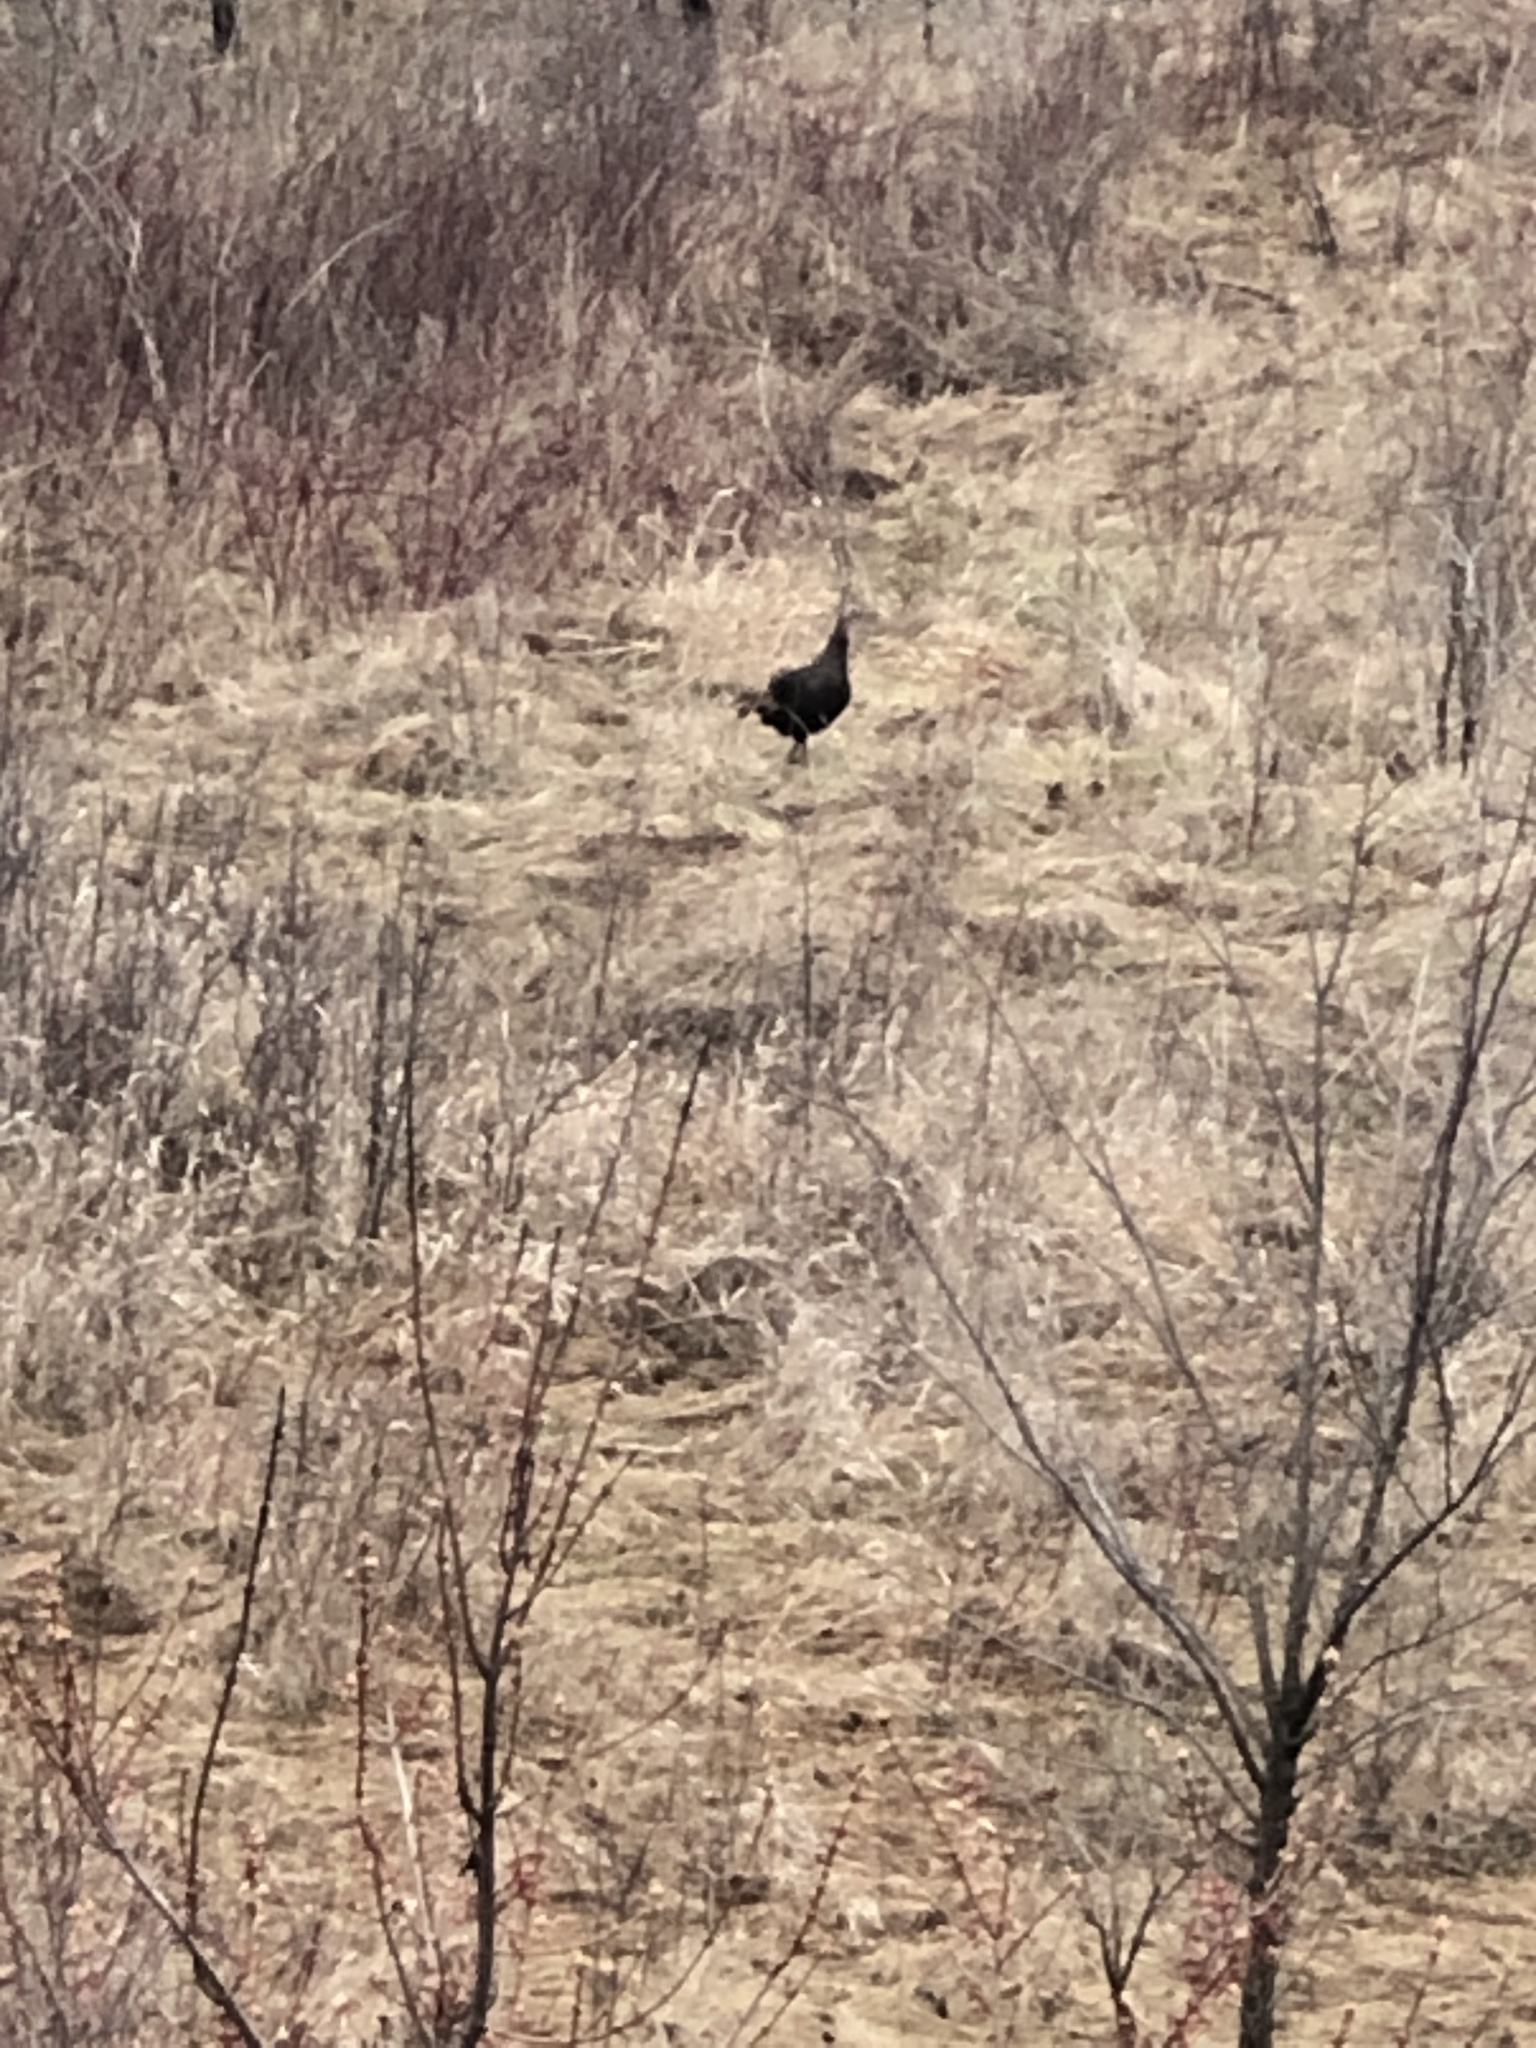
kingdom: Animalia
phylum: Chordata
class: Aves
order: Galliformes
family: Phasianidae
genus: Meleagris
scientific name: Meleagris gallopavo
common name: Wild turkey
